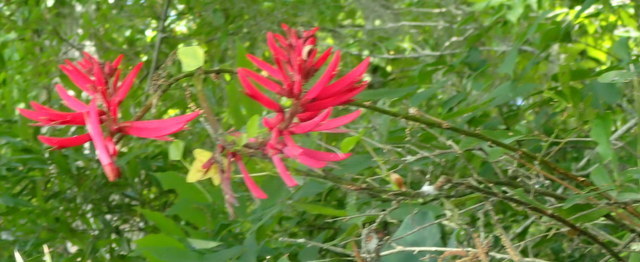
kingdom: Plantae
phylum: Tracheophyta
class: Magnoliopsida
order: Fabales
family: Fabaceae
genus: Erythrina
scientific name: Erythrina herbacea
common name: Coral-bean
